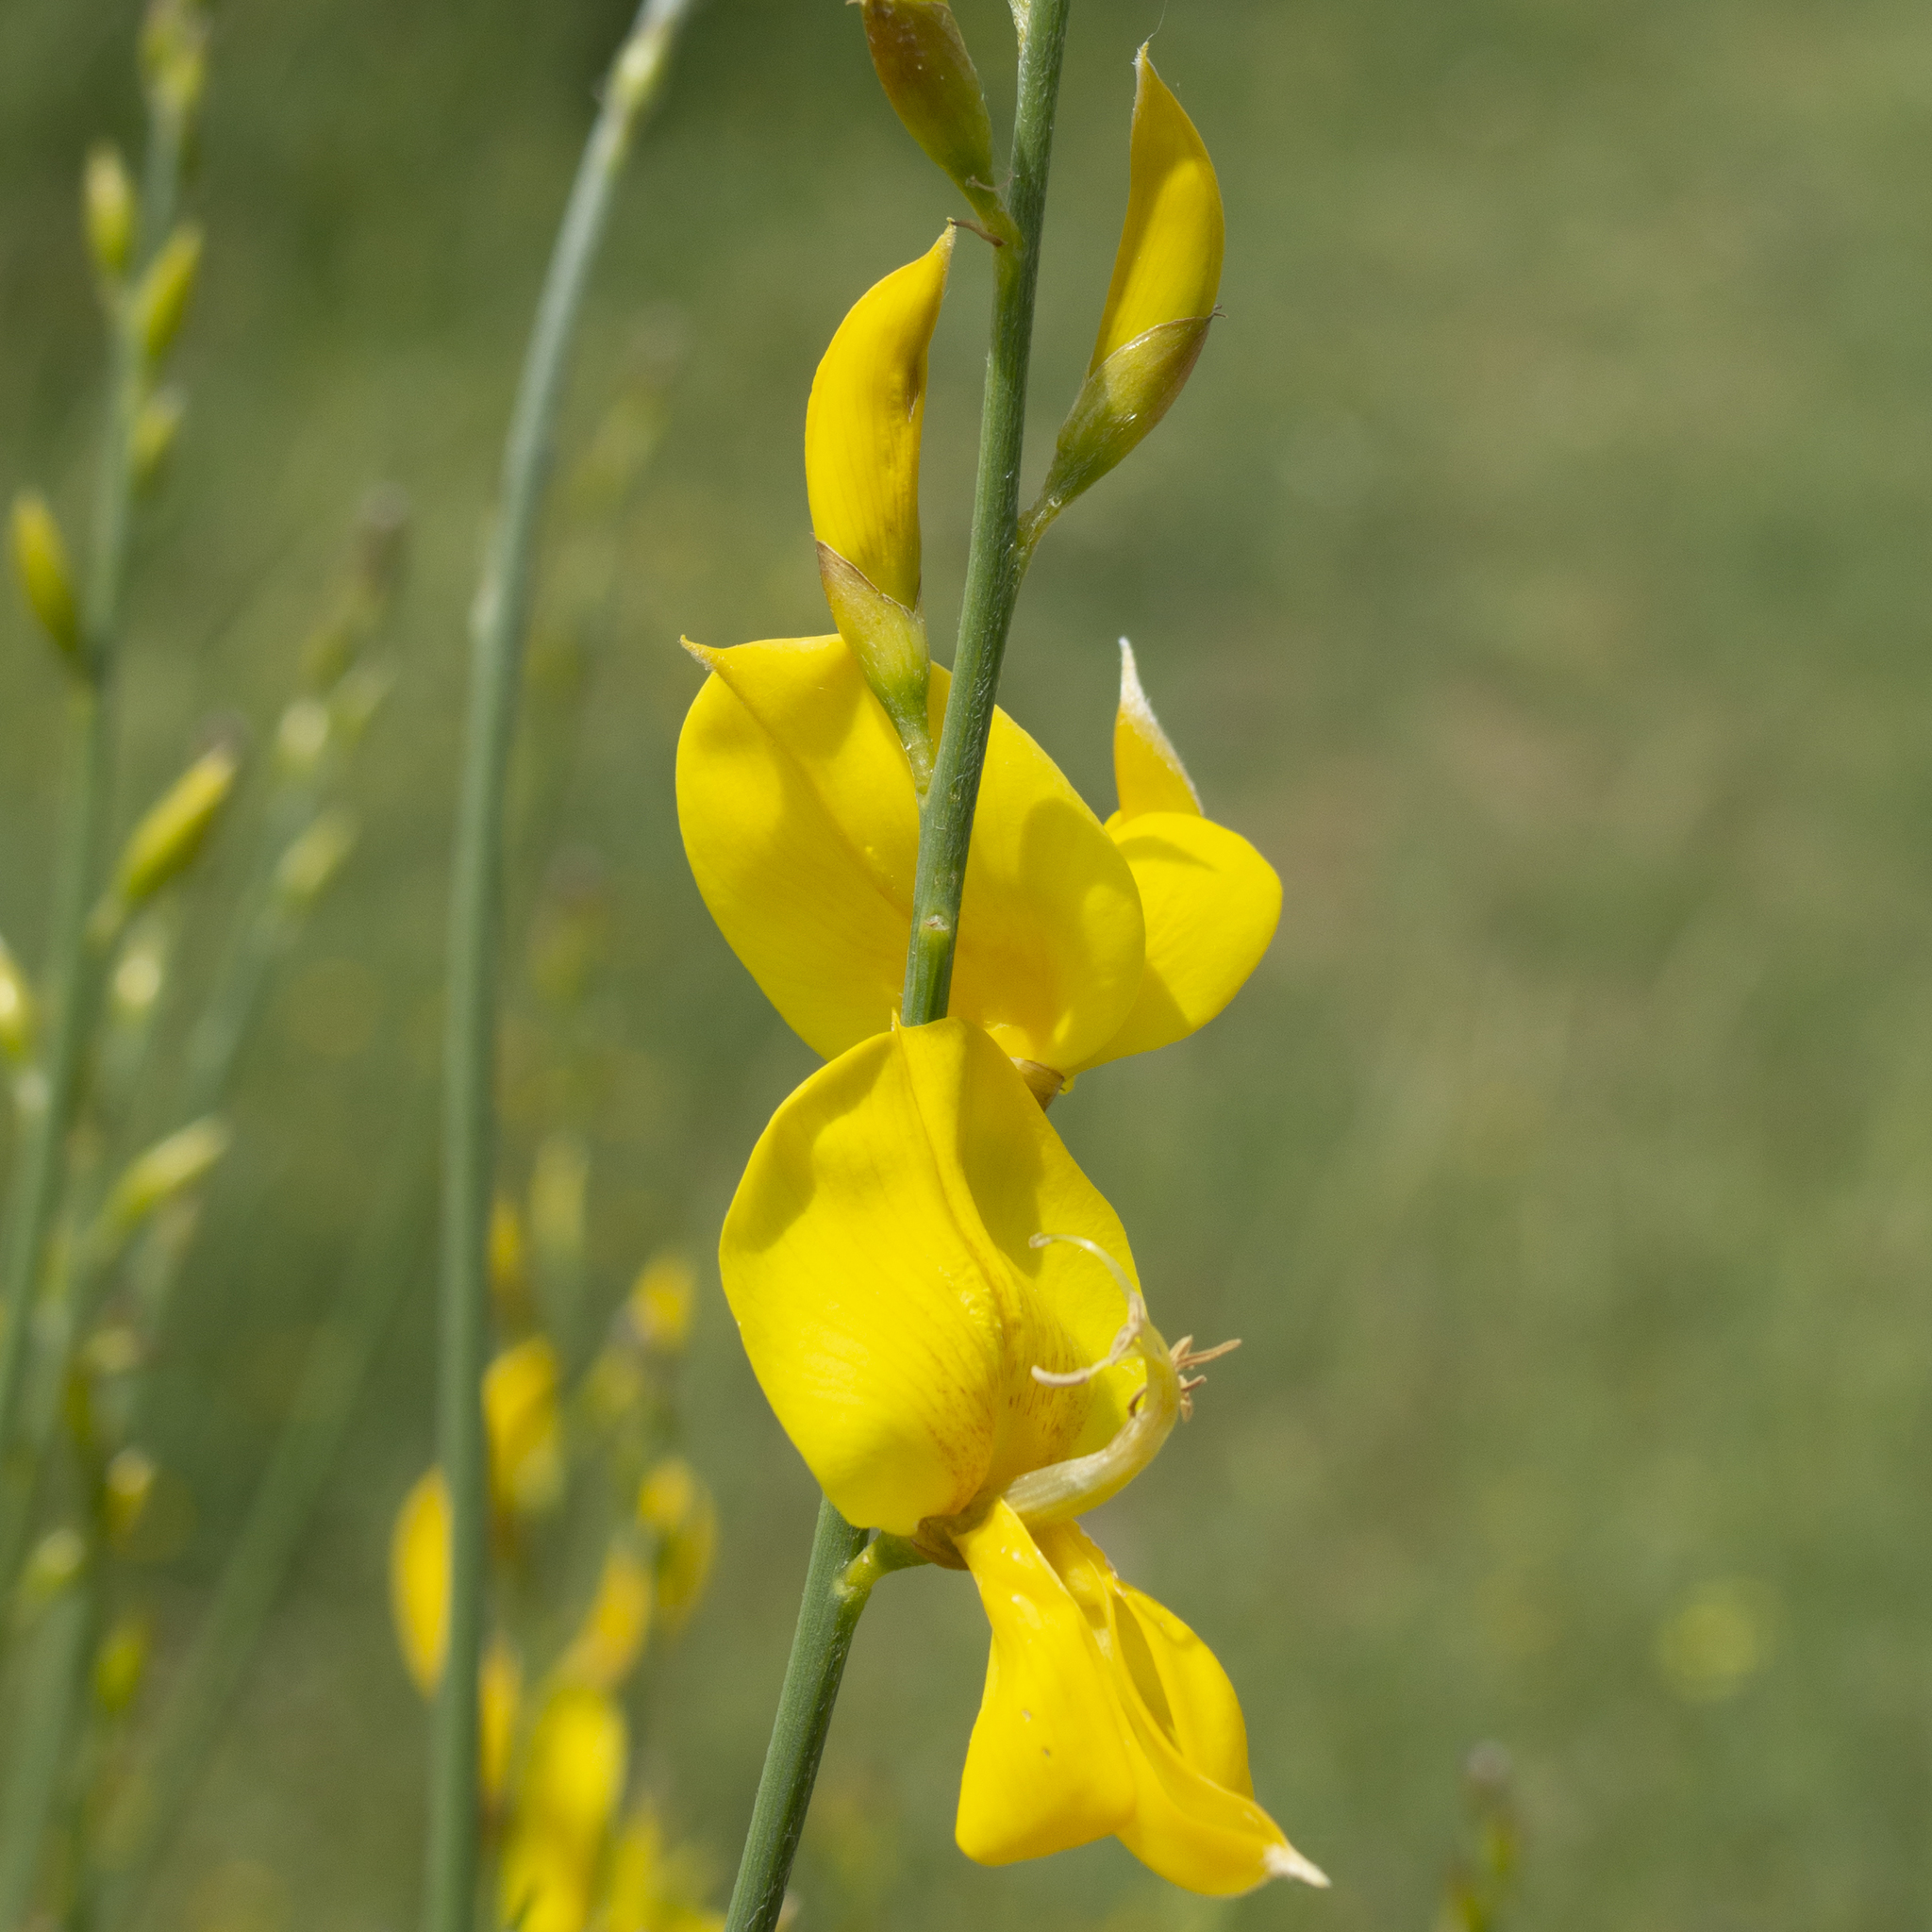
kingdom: Plantae
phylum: Tracheophyta
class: Magnoliopsida
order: Fabales
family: Fabaceae
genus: Spartium
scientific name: Spartium junceum
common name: Spanish broom
